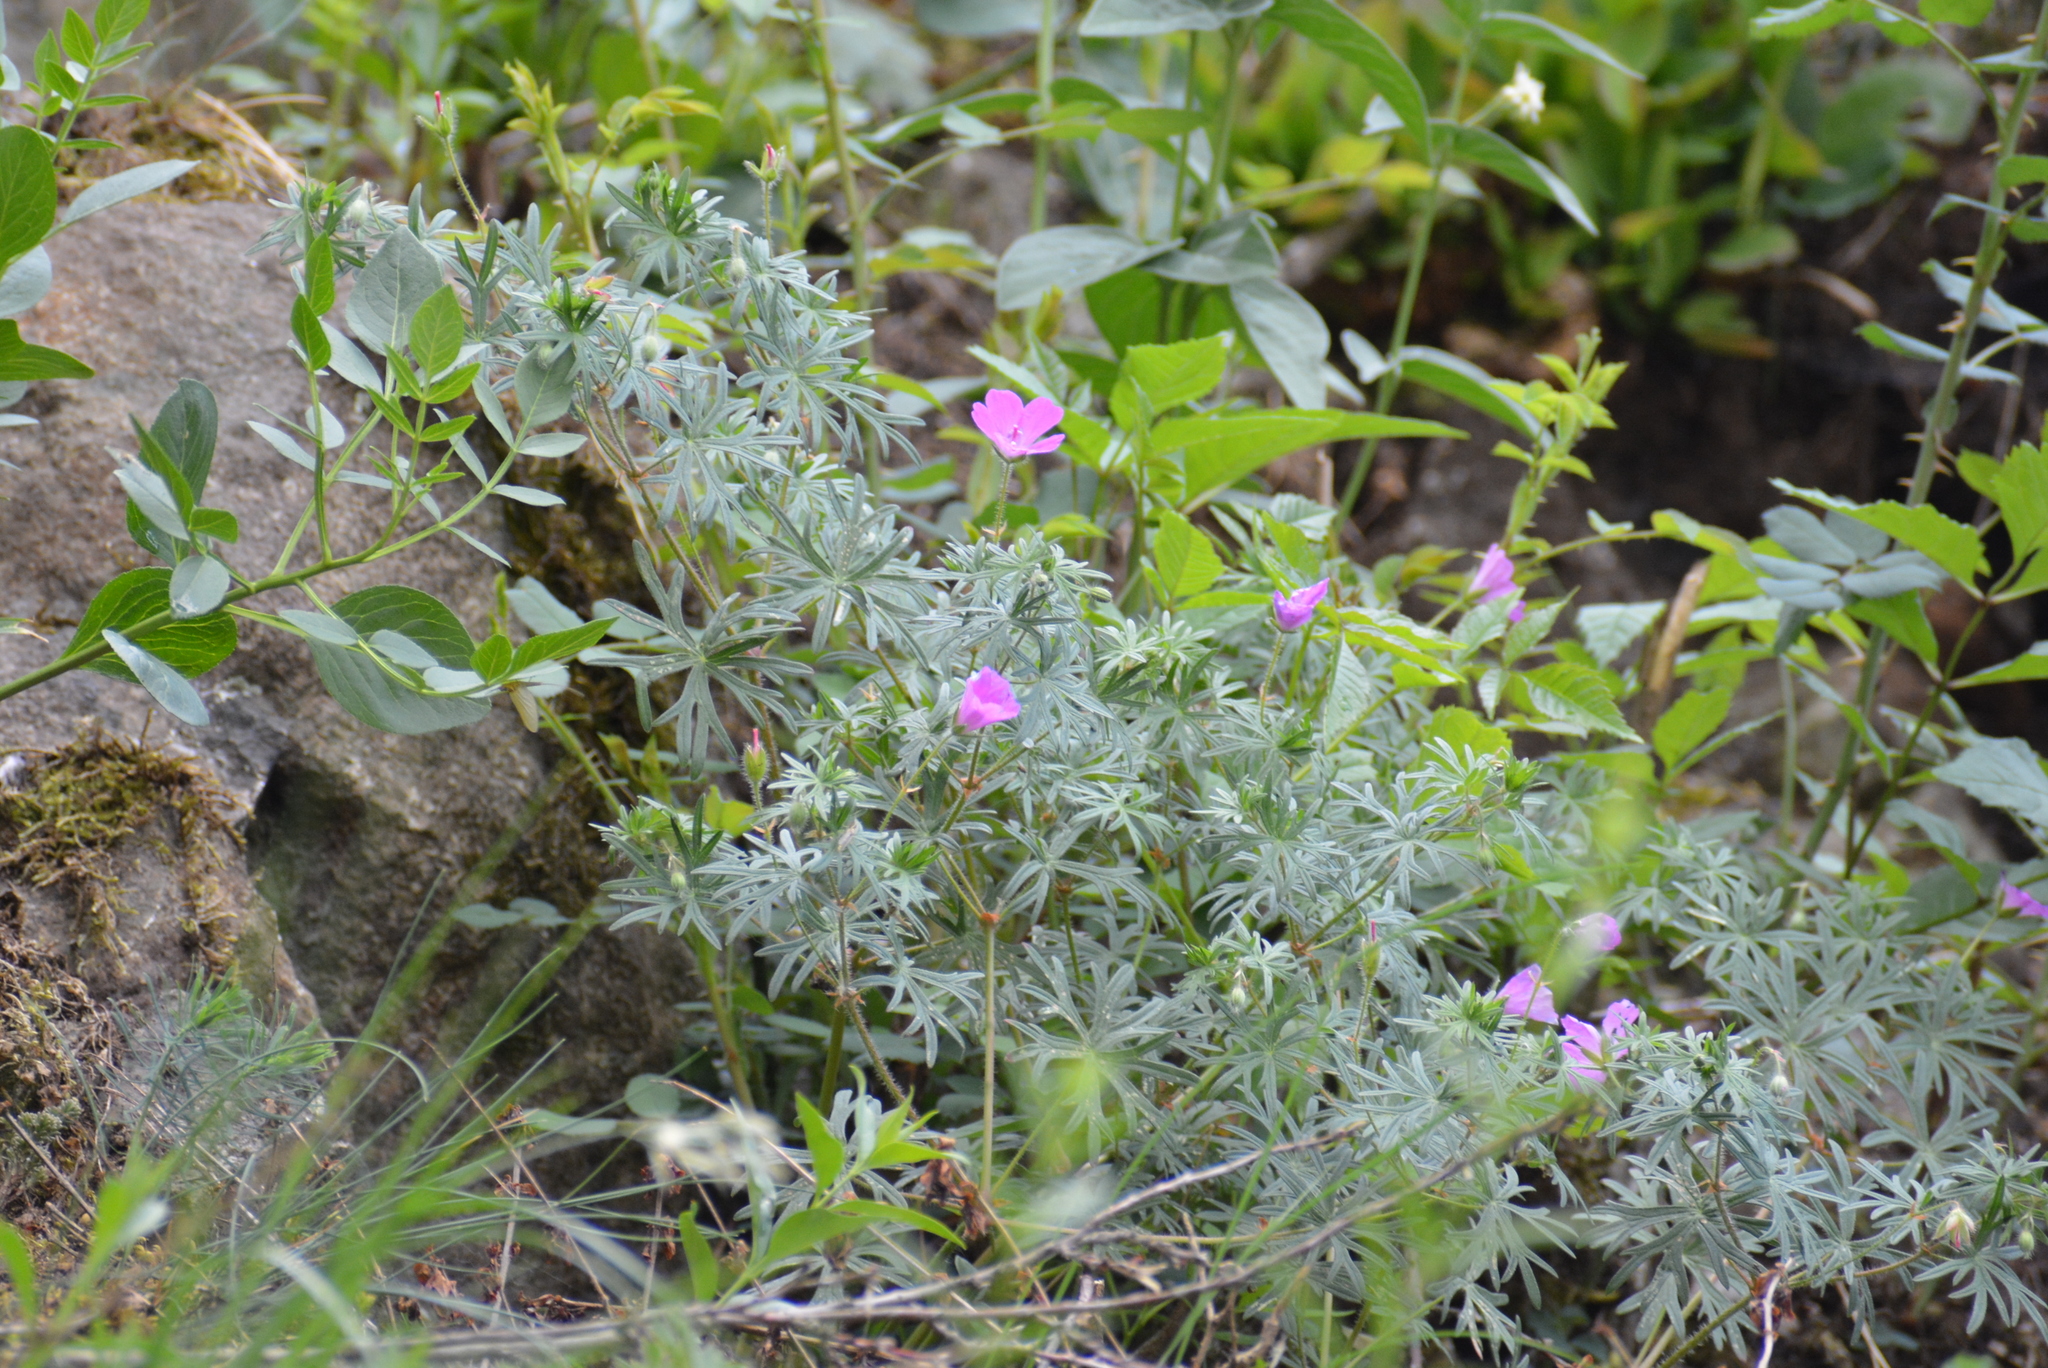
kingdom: Plantae
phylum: Tracheophyta
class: Magnoliopsida
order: Geraniales
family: Geraniaceae
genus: Geranium
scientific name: Geranium sanguineum
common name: Bloody crane's-bill
